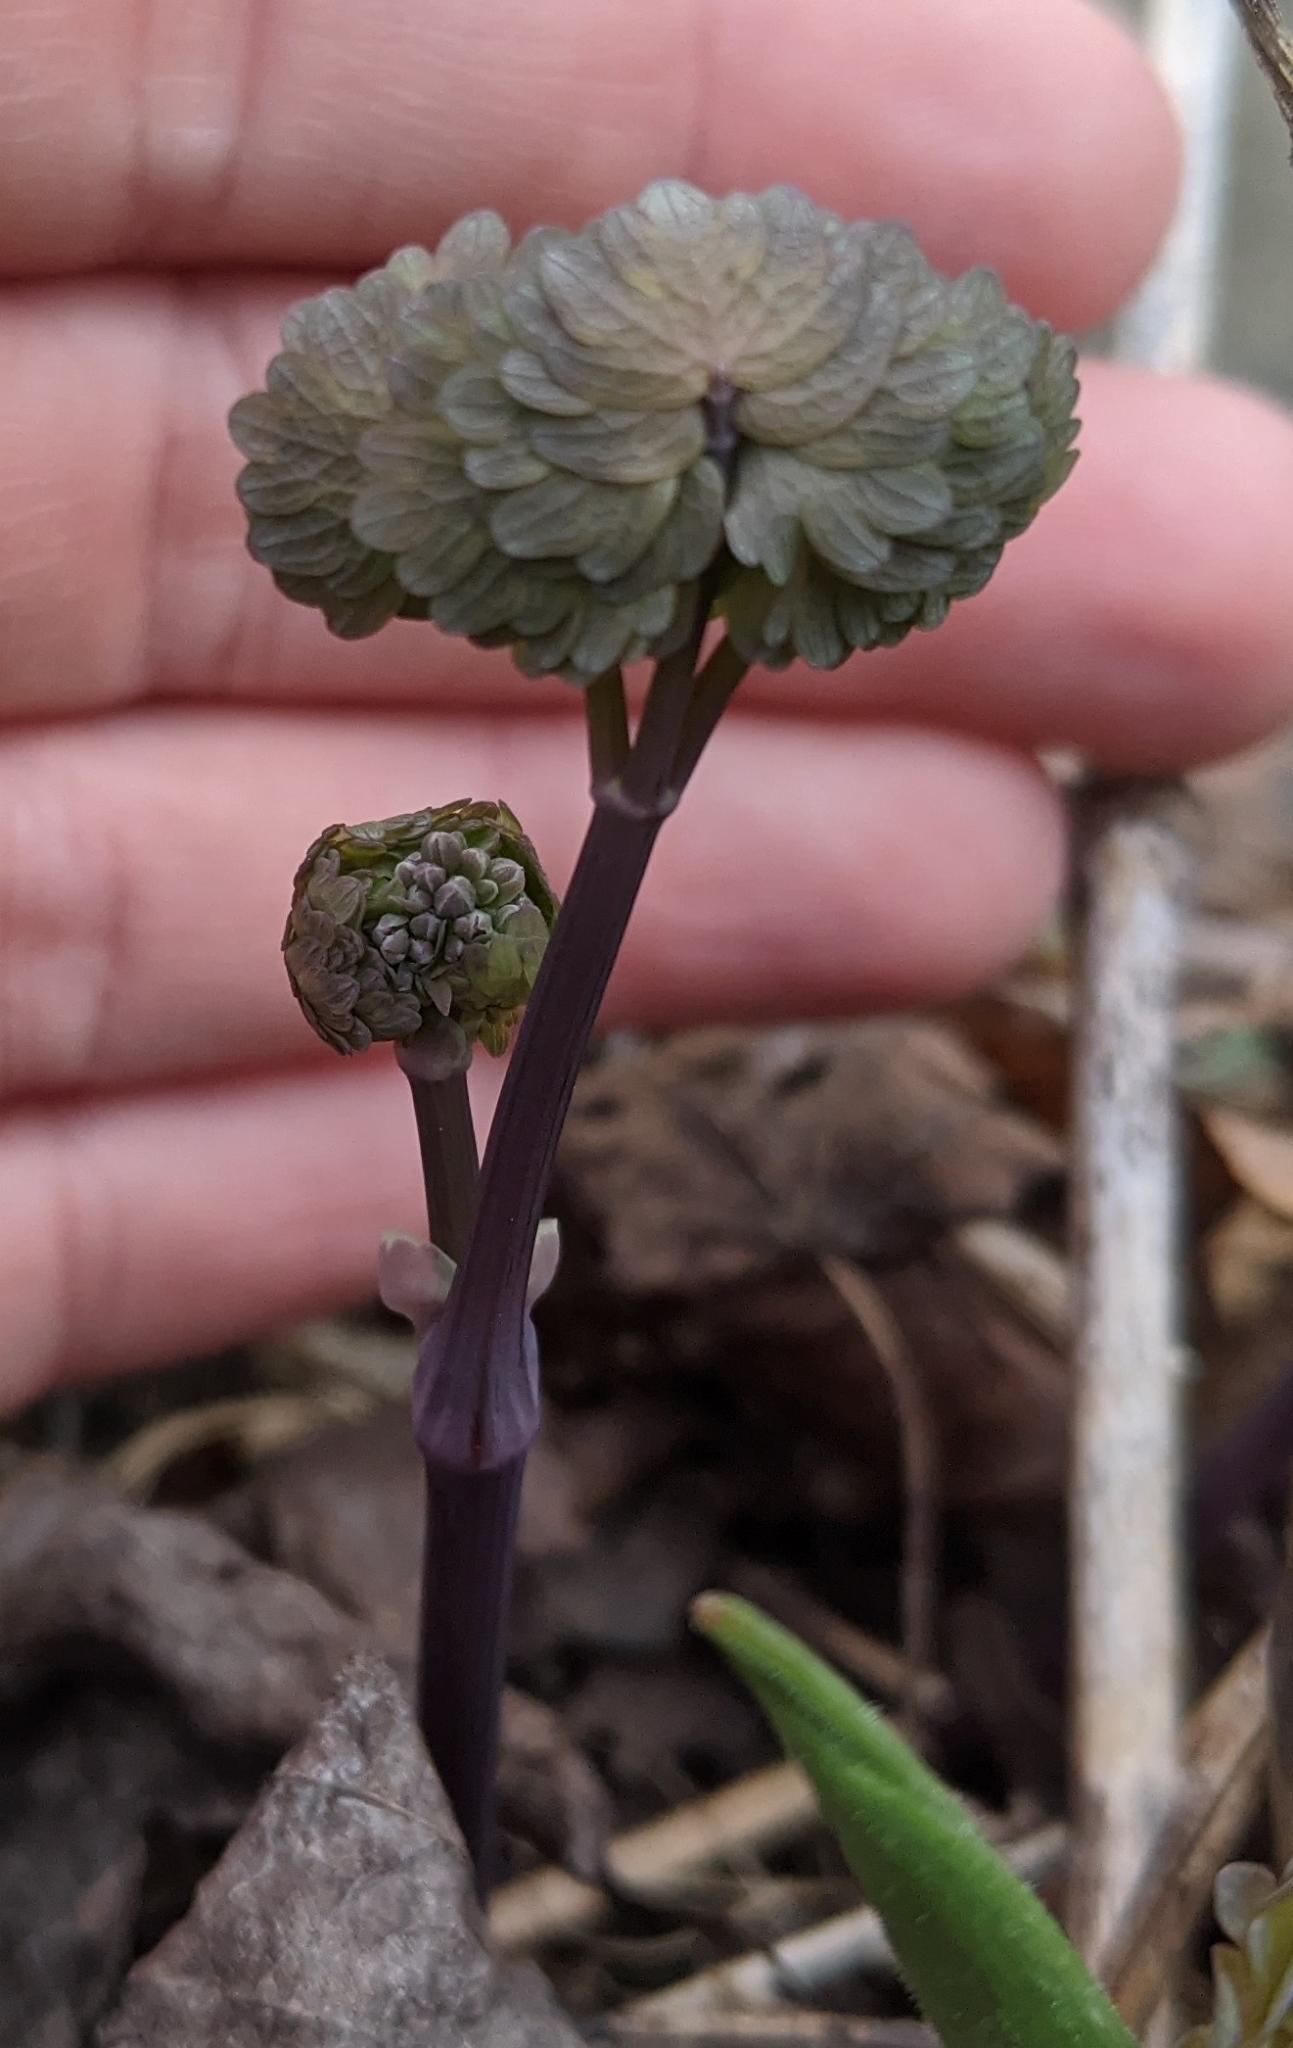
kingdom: Plantae
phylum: Tracheophyta
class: Magnoliopsida
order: Ranunculales
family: Ranunculaceae
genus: Thalictrum
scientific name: Thalictrum dioicum
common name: Early meadow-rue
